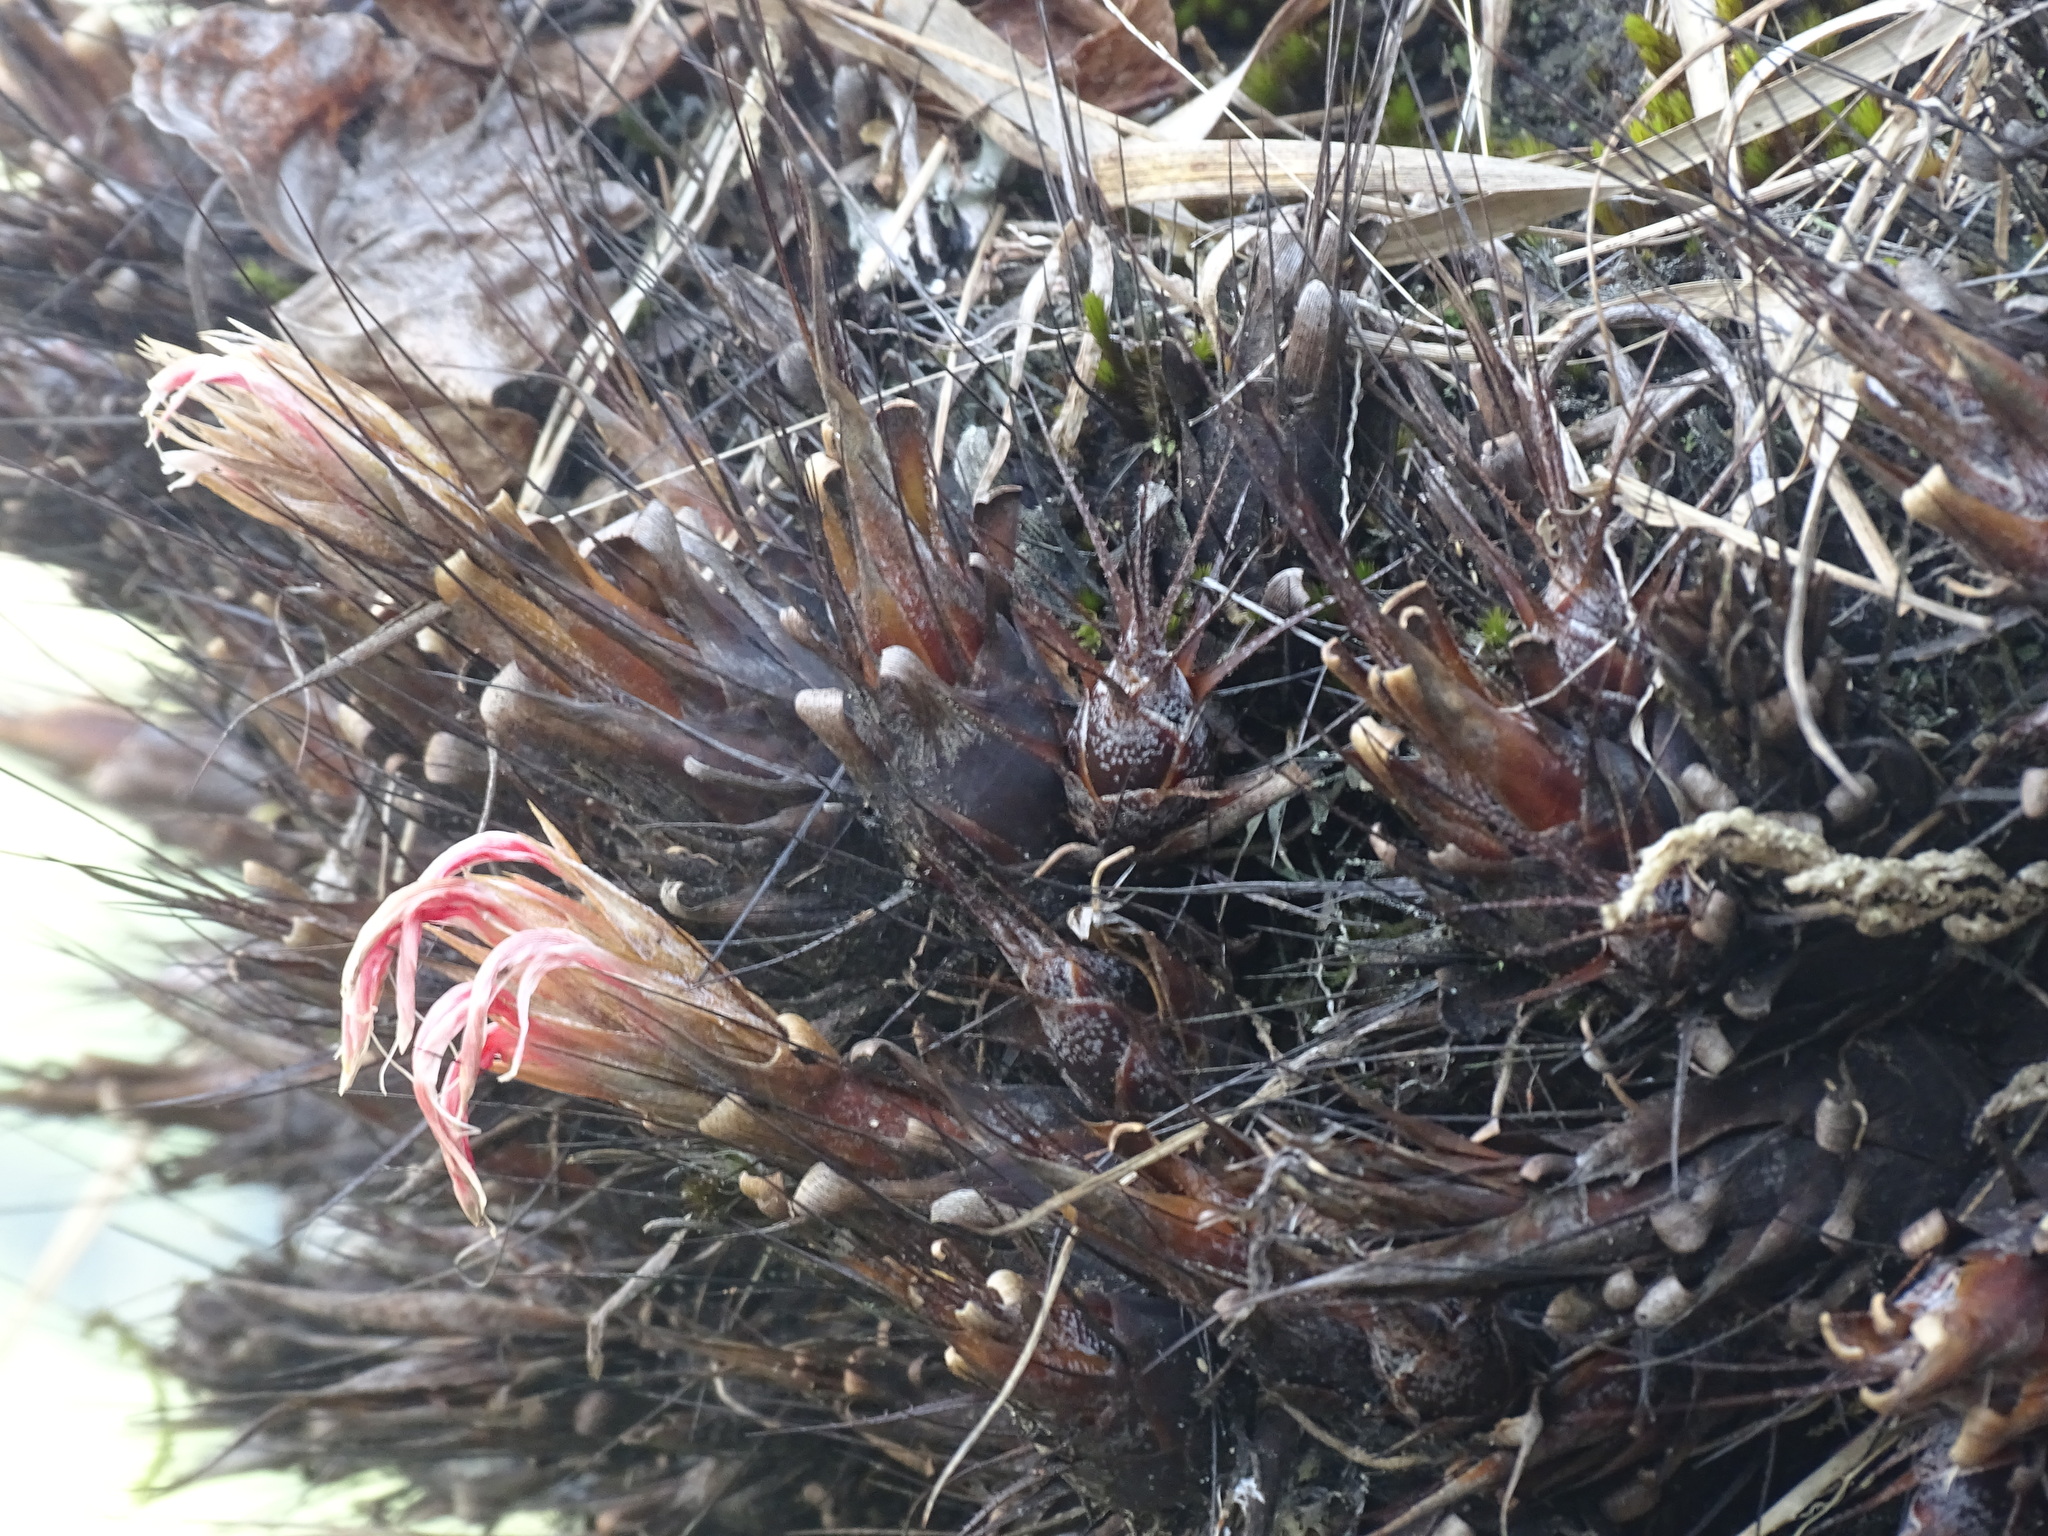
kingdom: Plantae
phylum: Tracheophyta
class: Liliopsida
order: Poales
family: Bromeliaceae
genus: Pitcairnia
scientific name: Pitcairnia heterophylla
